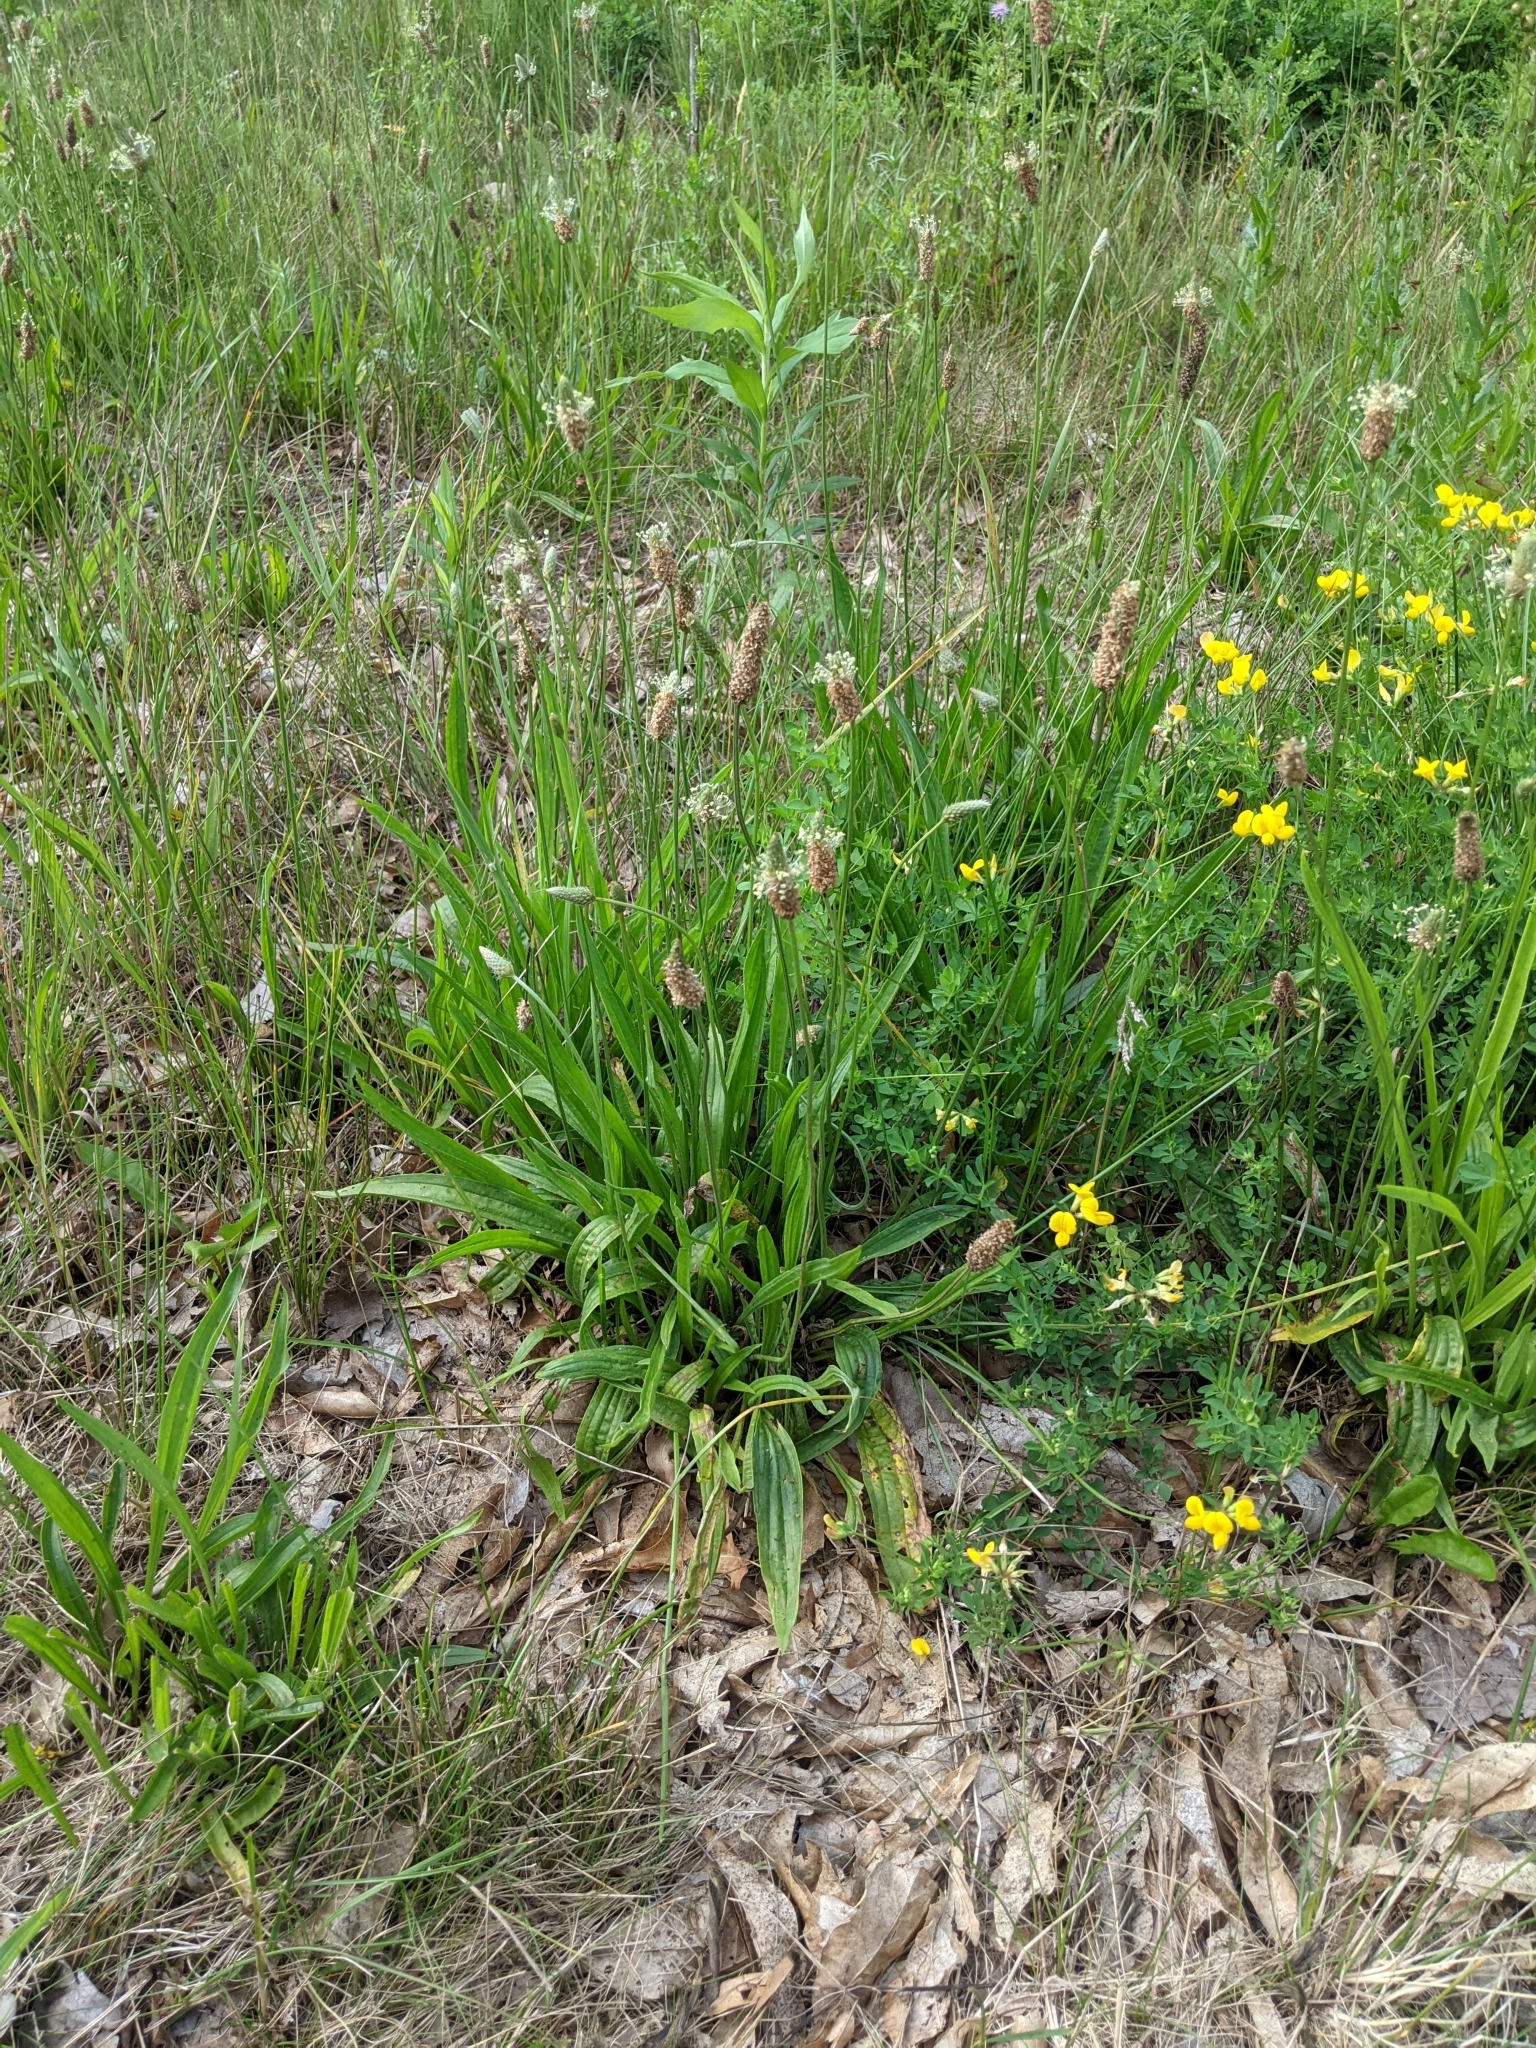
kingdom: Plantae
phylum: Tracheophyta
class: Magnoliopsida
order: Lamiales
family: Plantaginaceae
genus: Plantago
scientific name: Plantago lanceolata
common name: Ribwort plantain
